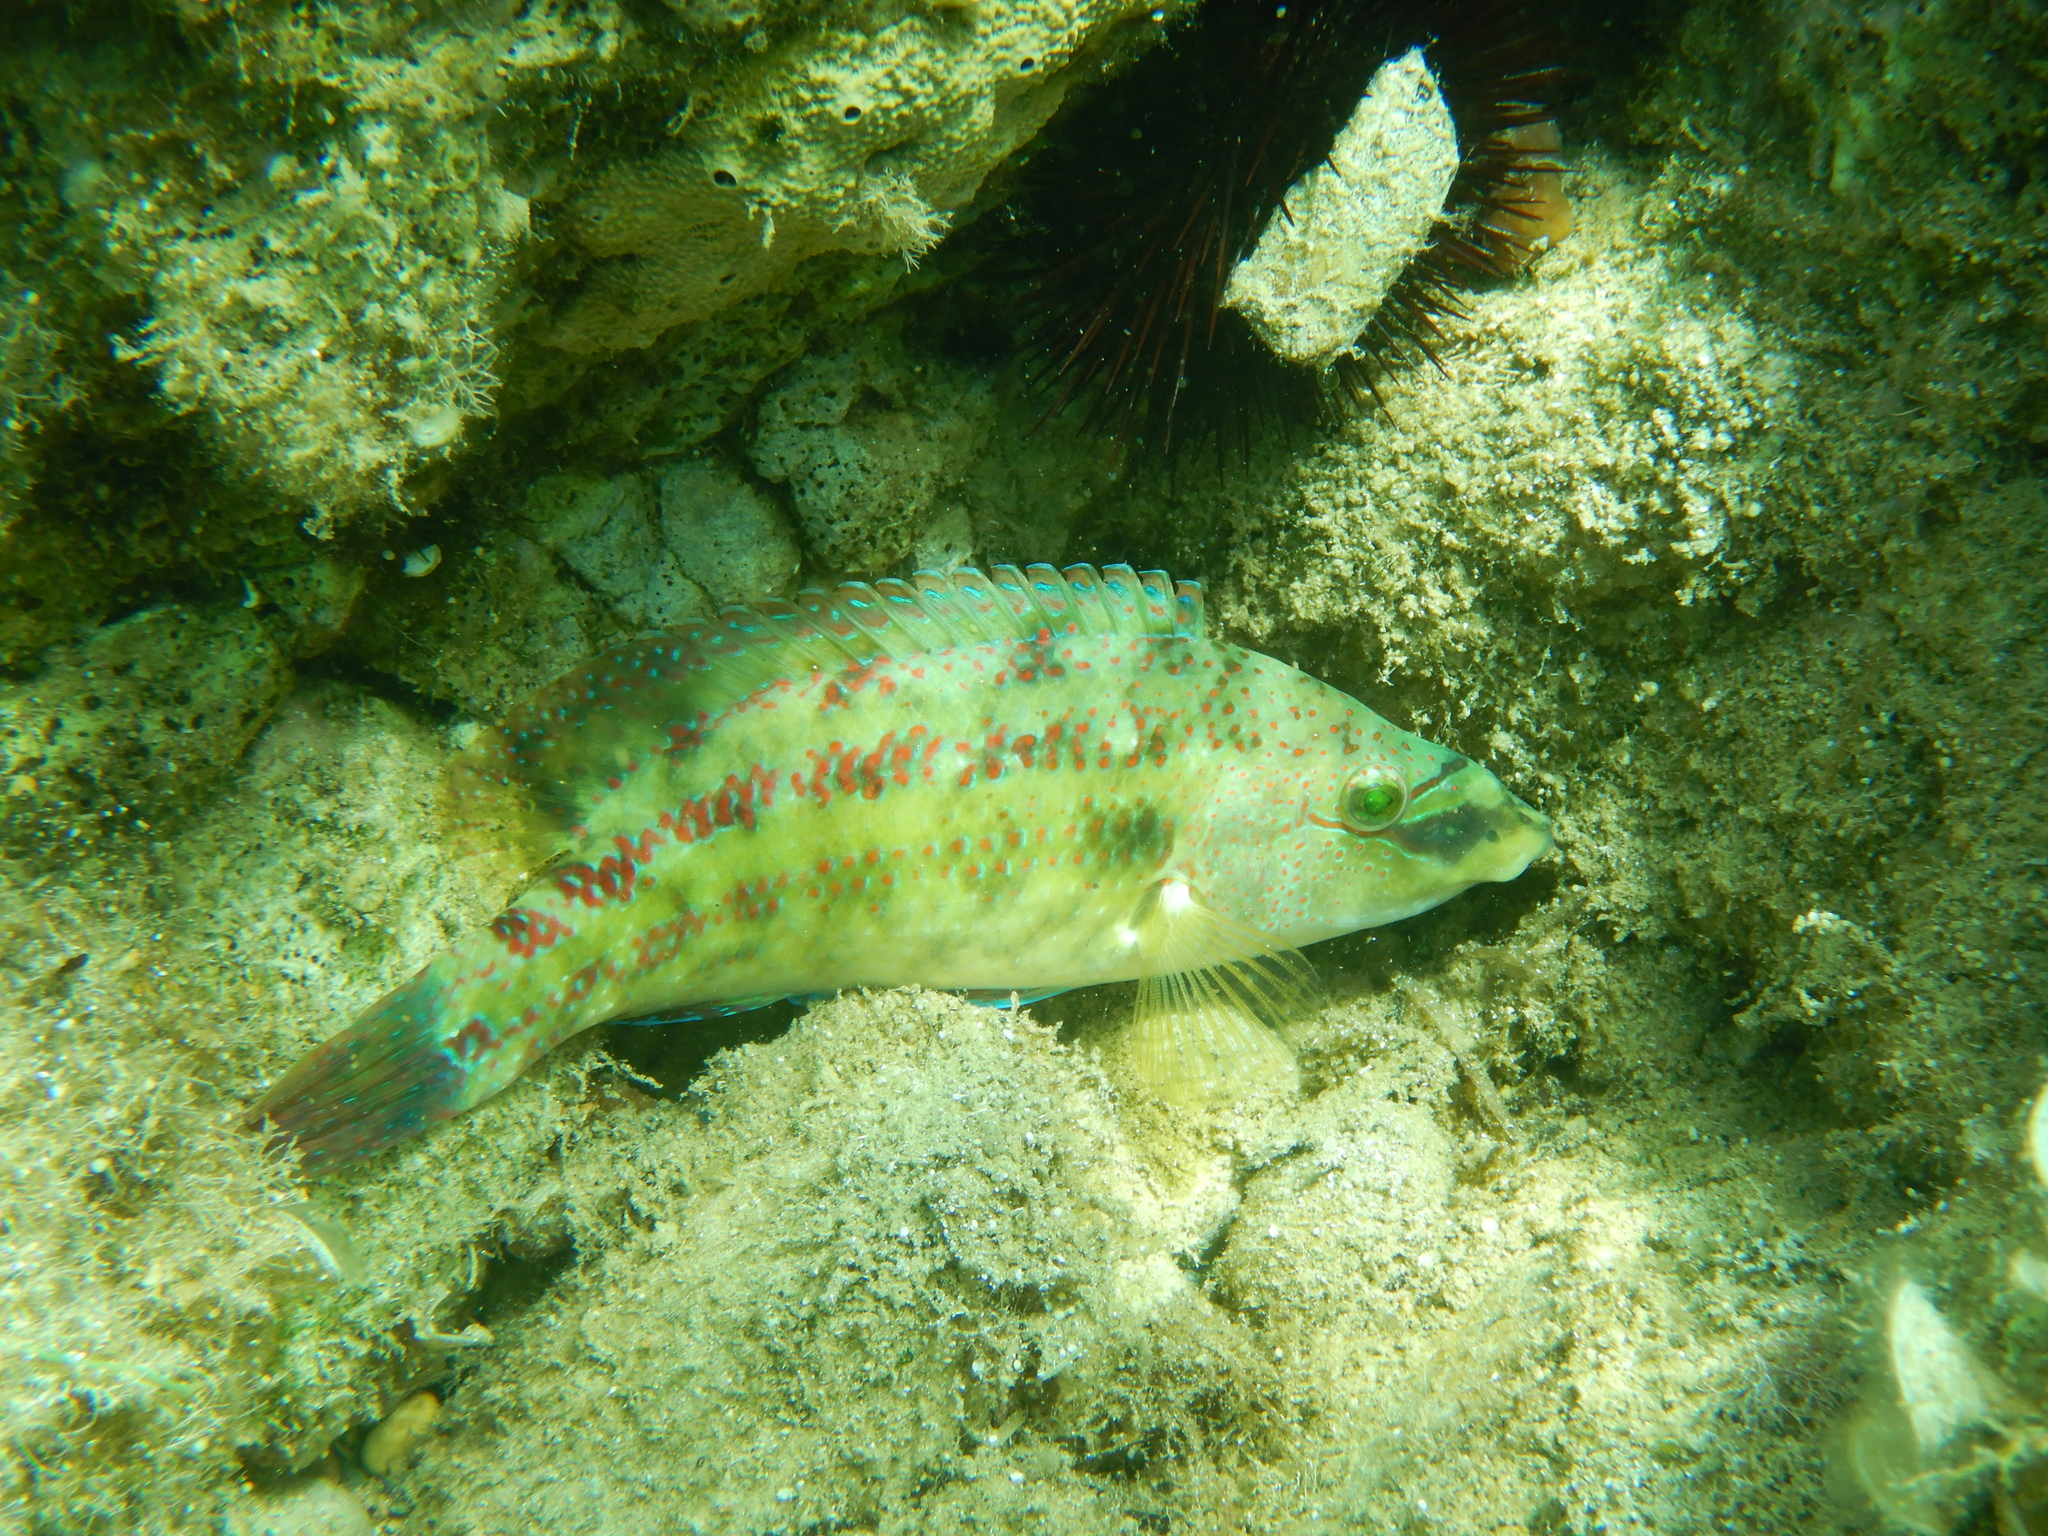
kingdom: Animalia
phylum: Chordata
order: Perciformes
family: Labridae
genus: Symphodus
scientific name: Symphodus tinca
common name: Peacock wrasse
